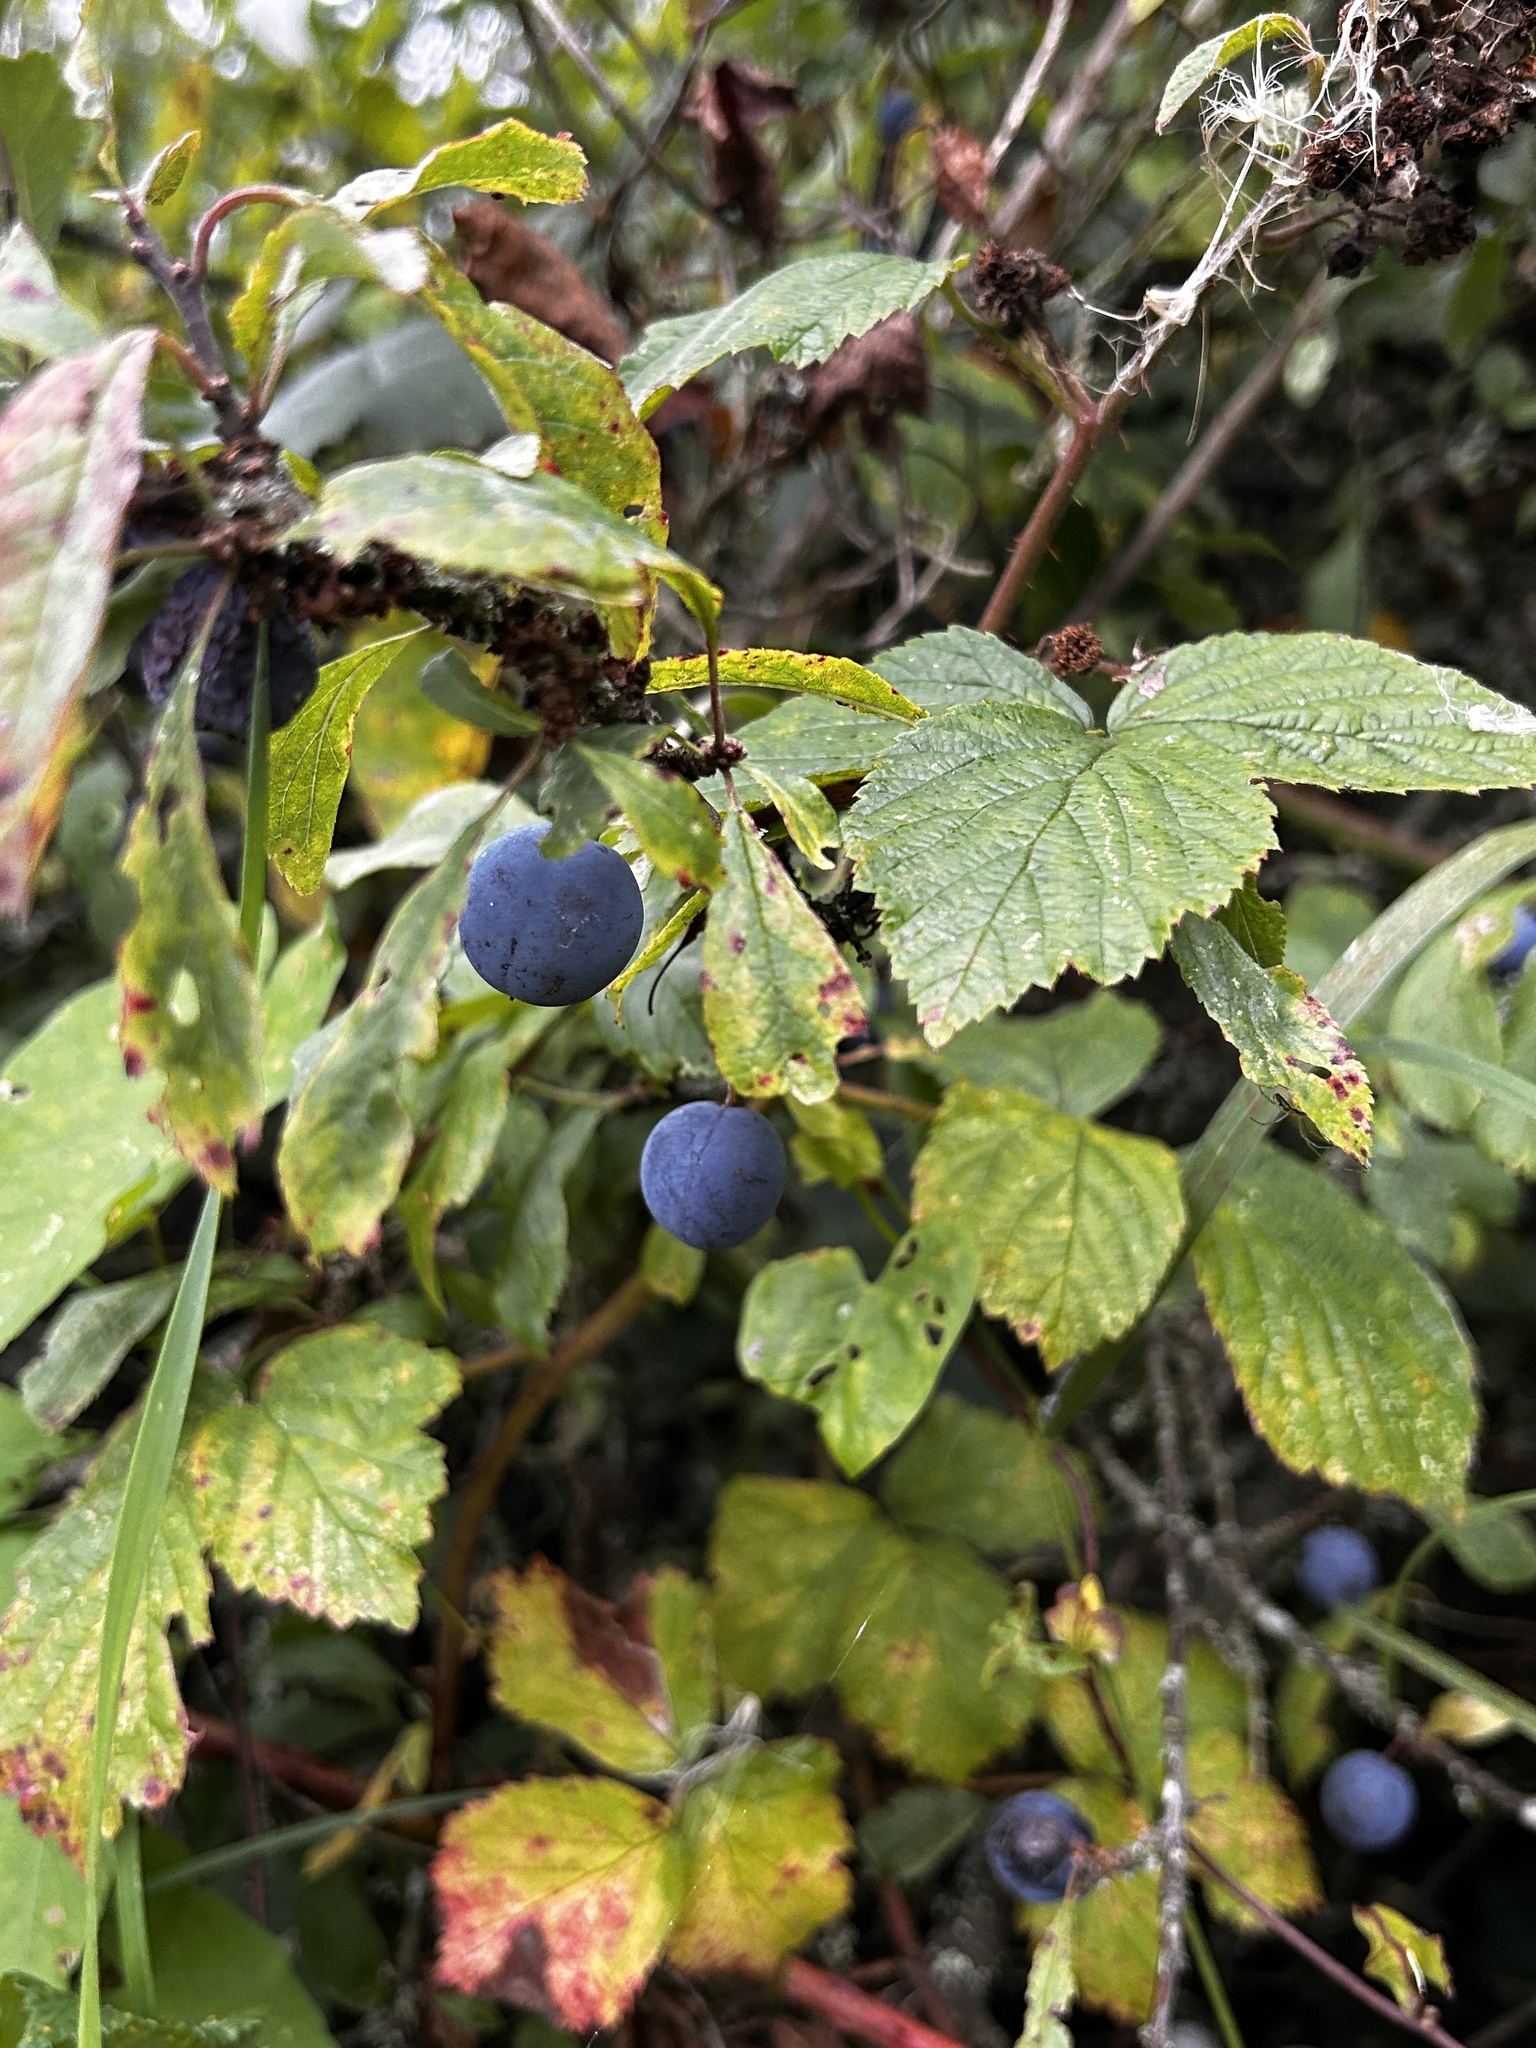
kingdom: Plantae
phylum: Tracheophyta
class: Magnoliopsida
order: Rosales
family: Rosaceae
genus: Prunus
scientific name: Prunus spinosa
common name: Blackthorn
